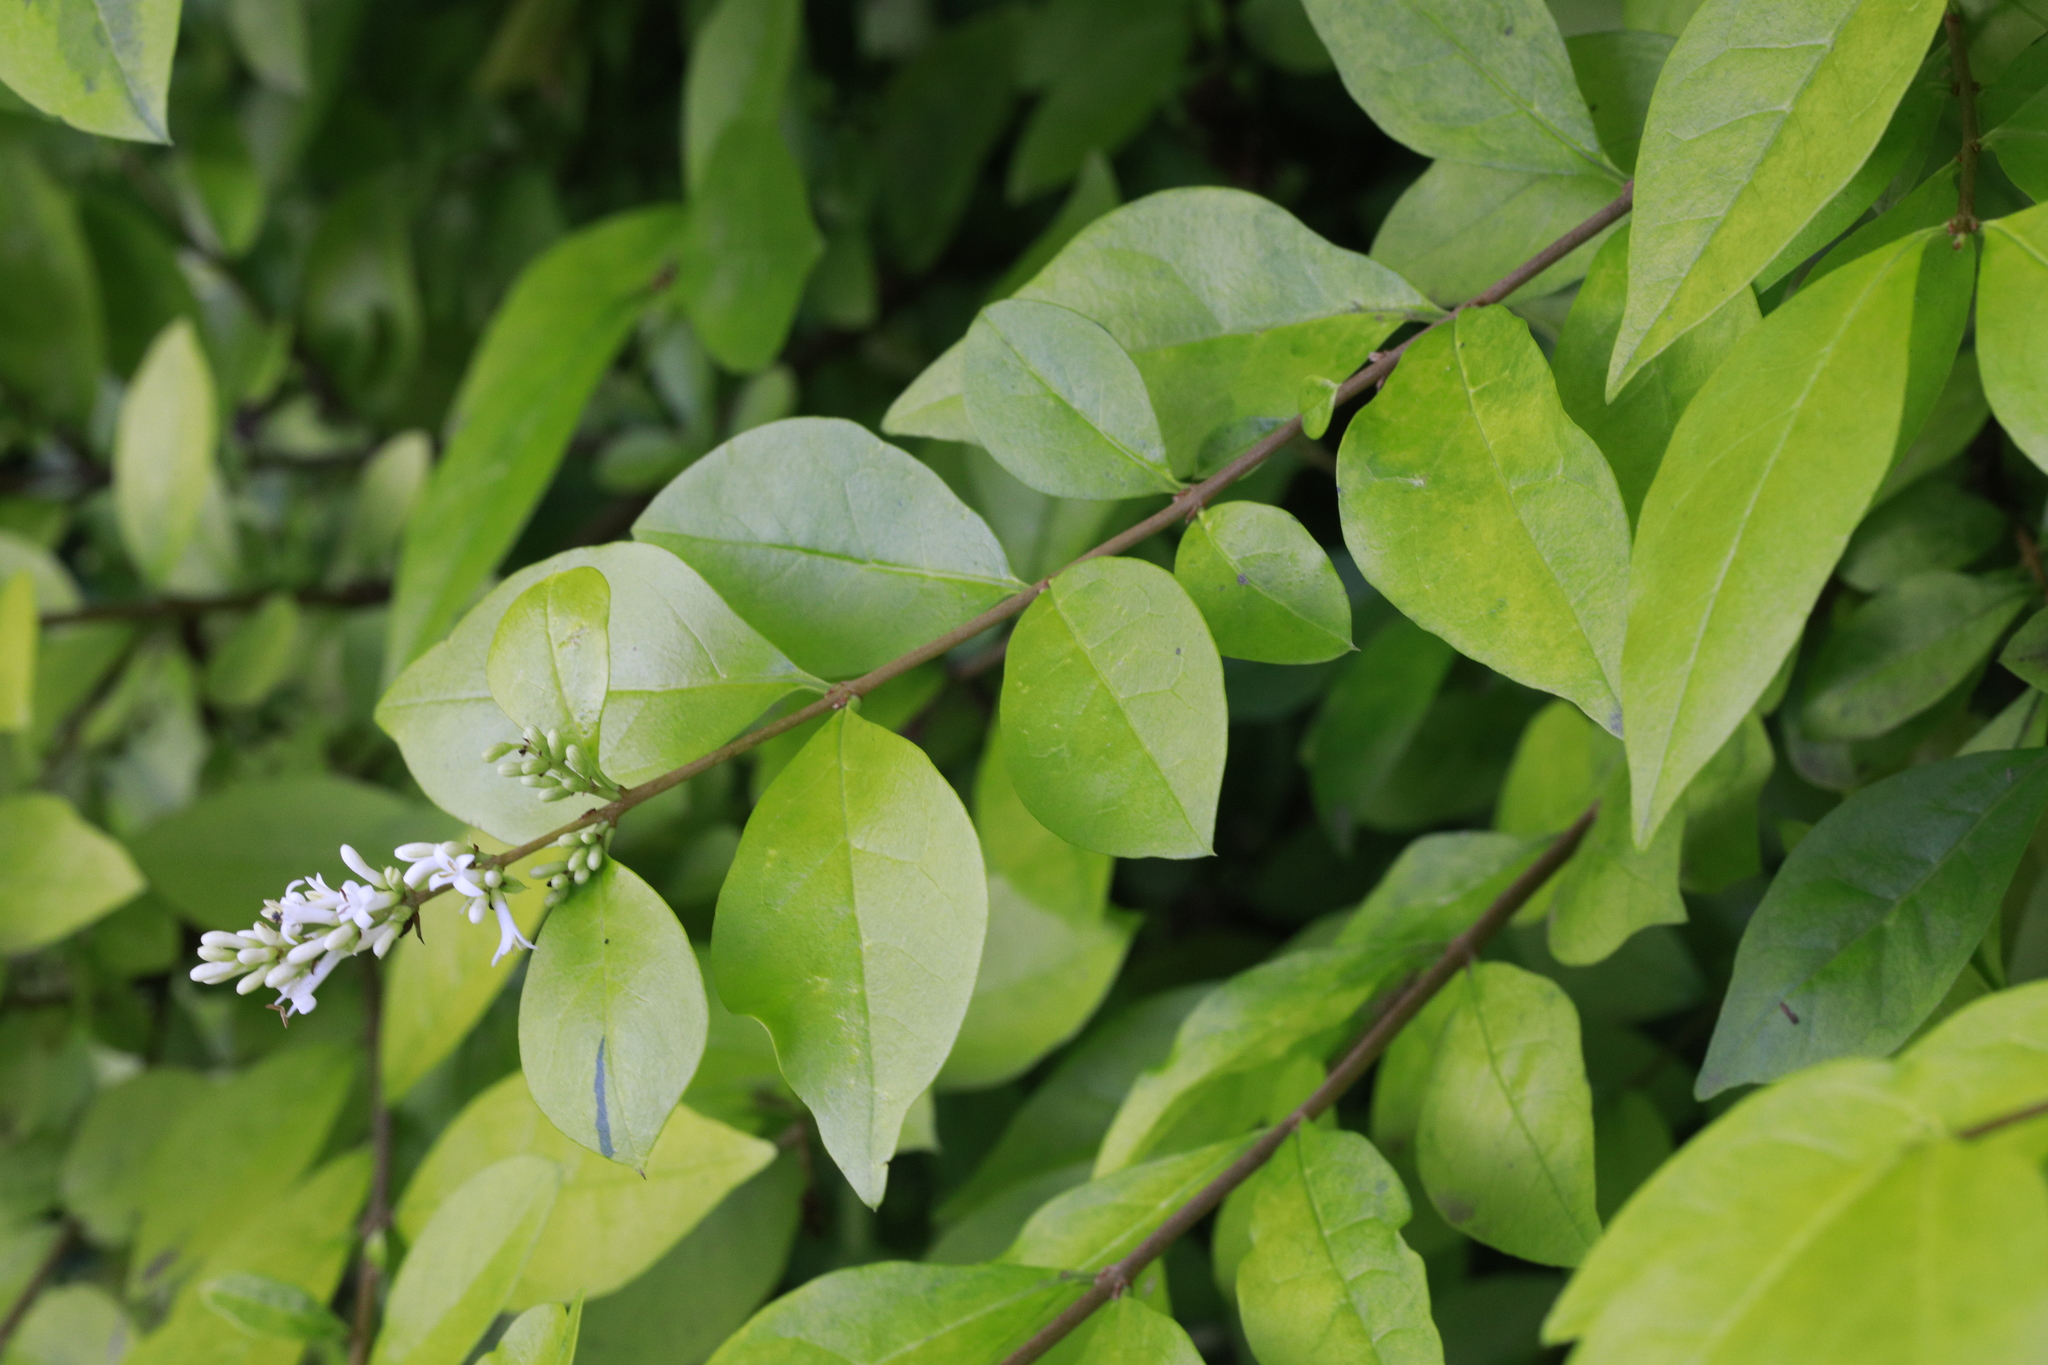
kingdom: Plantae
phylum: Tracheophyta
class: Magnoliopsida
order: Lamiales
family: Oleaceae
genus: Ligustrum
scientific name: Ligustrum ovalifolium
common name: California privet
